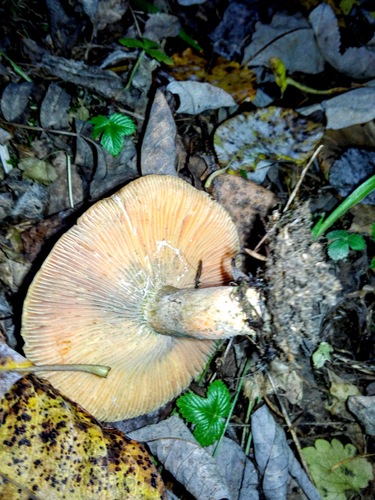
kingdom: Fungi
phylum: Basidiomycota
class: Agaricomycetes
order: Russulales
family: Russulaceae
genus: Lactarius
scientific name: Lactarius deterrimus
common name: False saffron milkcap
